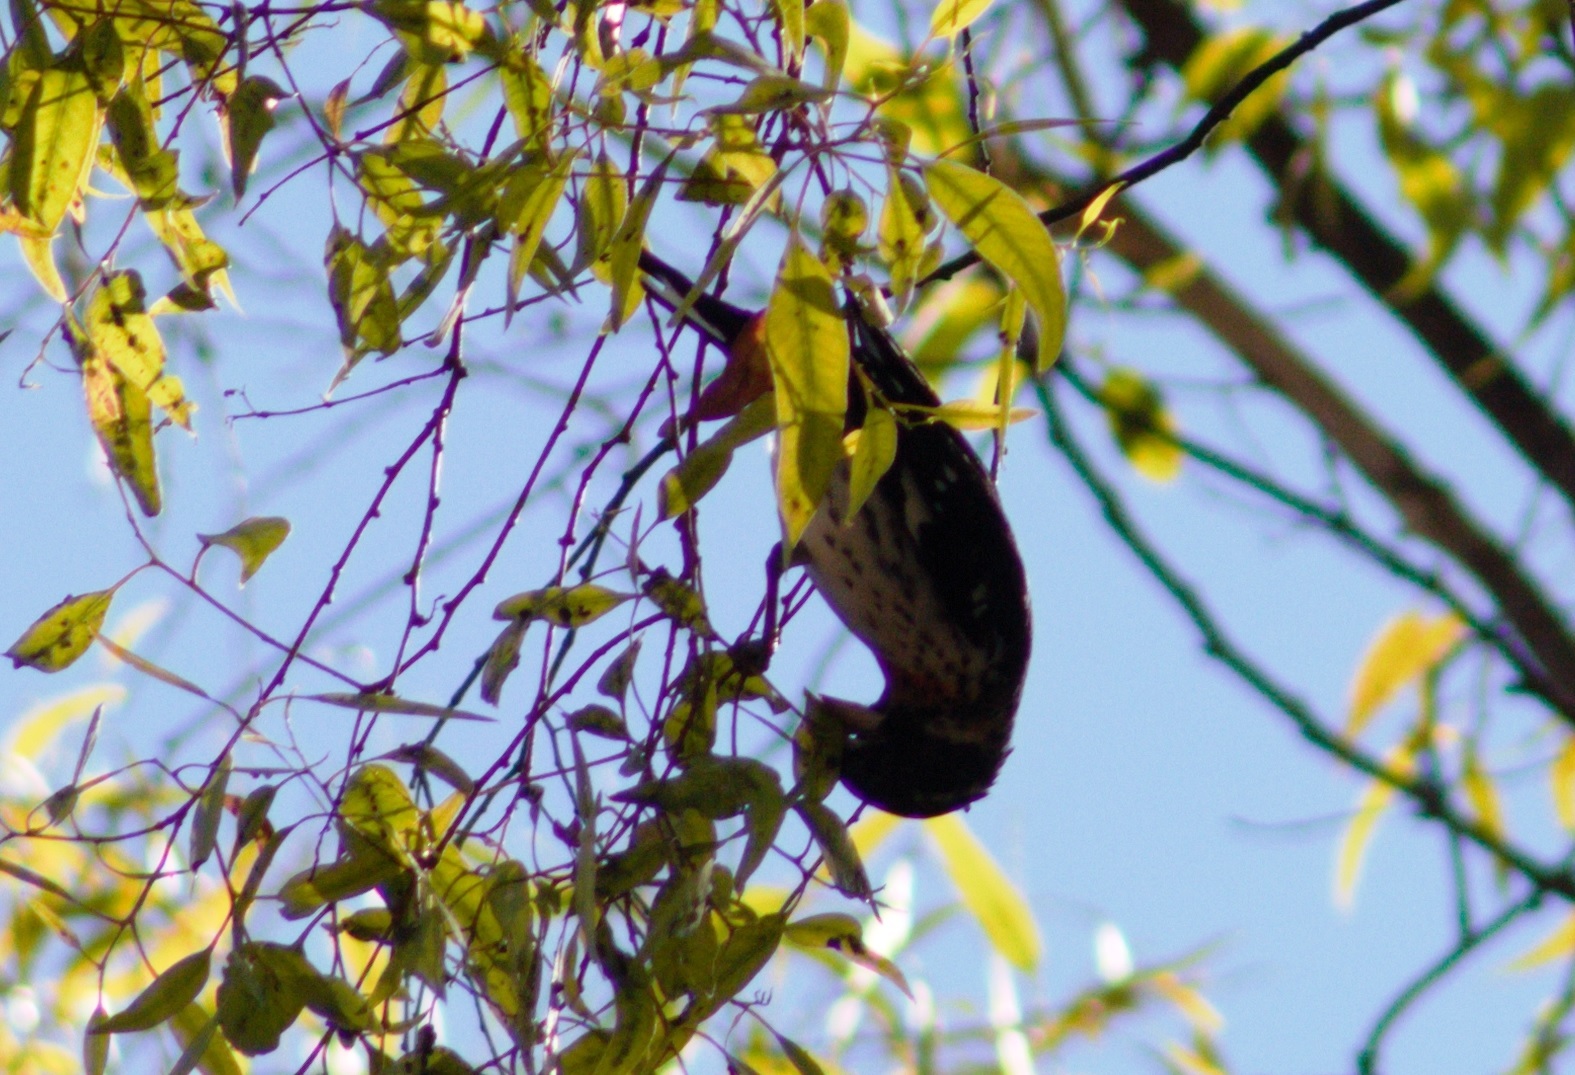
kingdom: Animalia
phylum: Chordata
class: Aves
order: Passeriformes
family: Cardinalidae
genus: Pheucticus
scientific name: Pheucticus ludovicianus
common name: Rose-breasted grosbeak
